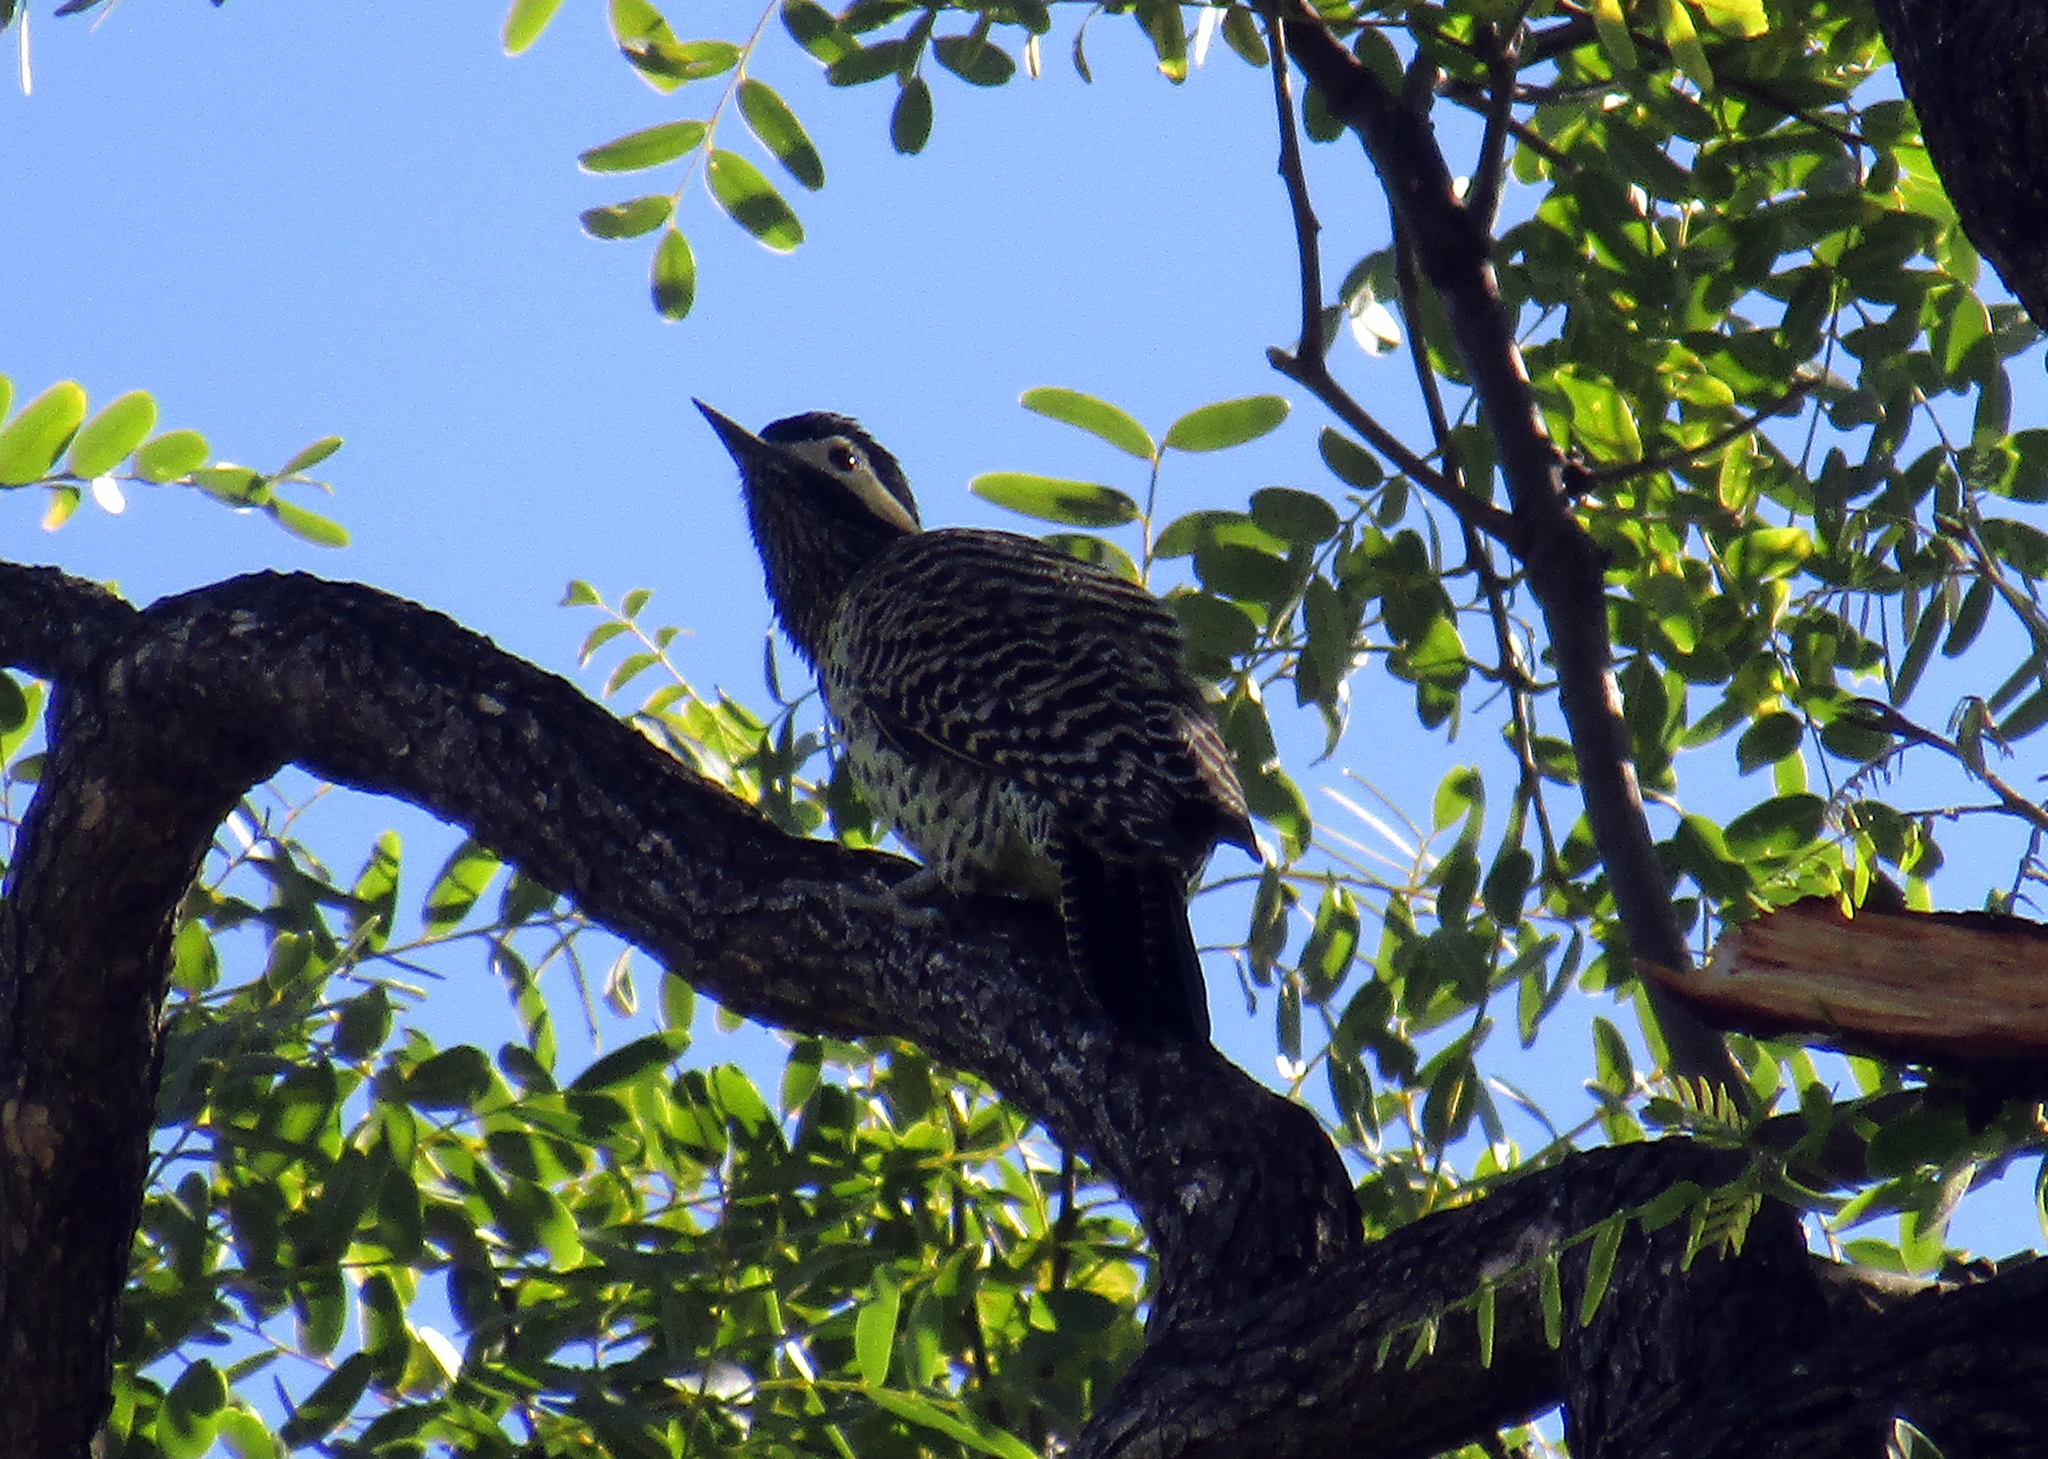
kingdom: Animalia
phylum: Chordata
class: Aves
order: Piciformes
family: Picidae
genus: Colaptes
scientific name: Colaptes melanochloros
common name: Green-barred woodpecker
